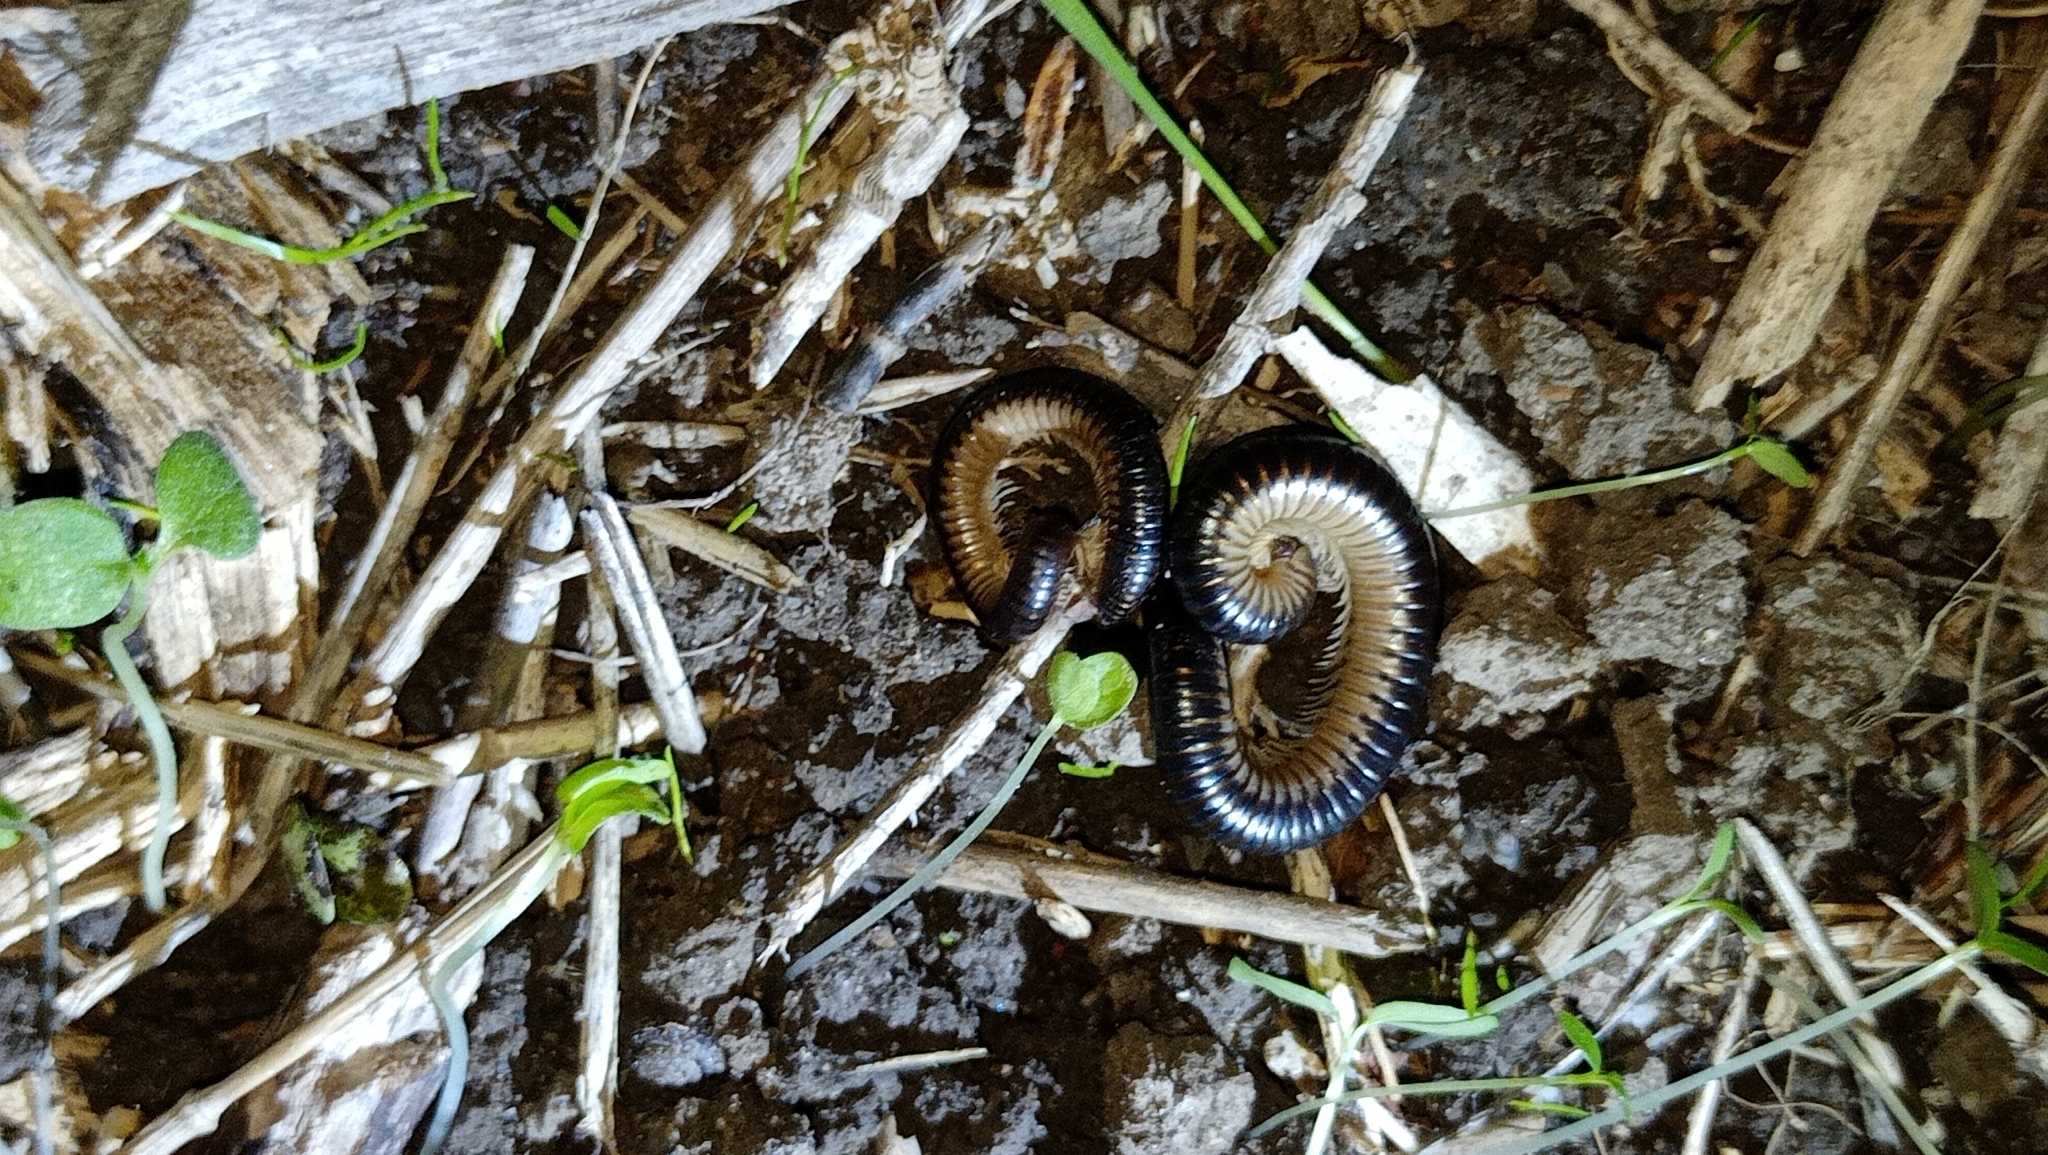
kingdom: Animalia
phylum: Arthropoda
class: Diplopoda
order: Julida
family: Julidae
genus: Pachyiulus
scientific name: Pachyiulus flavipes
